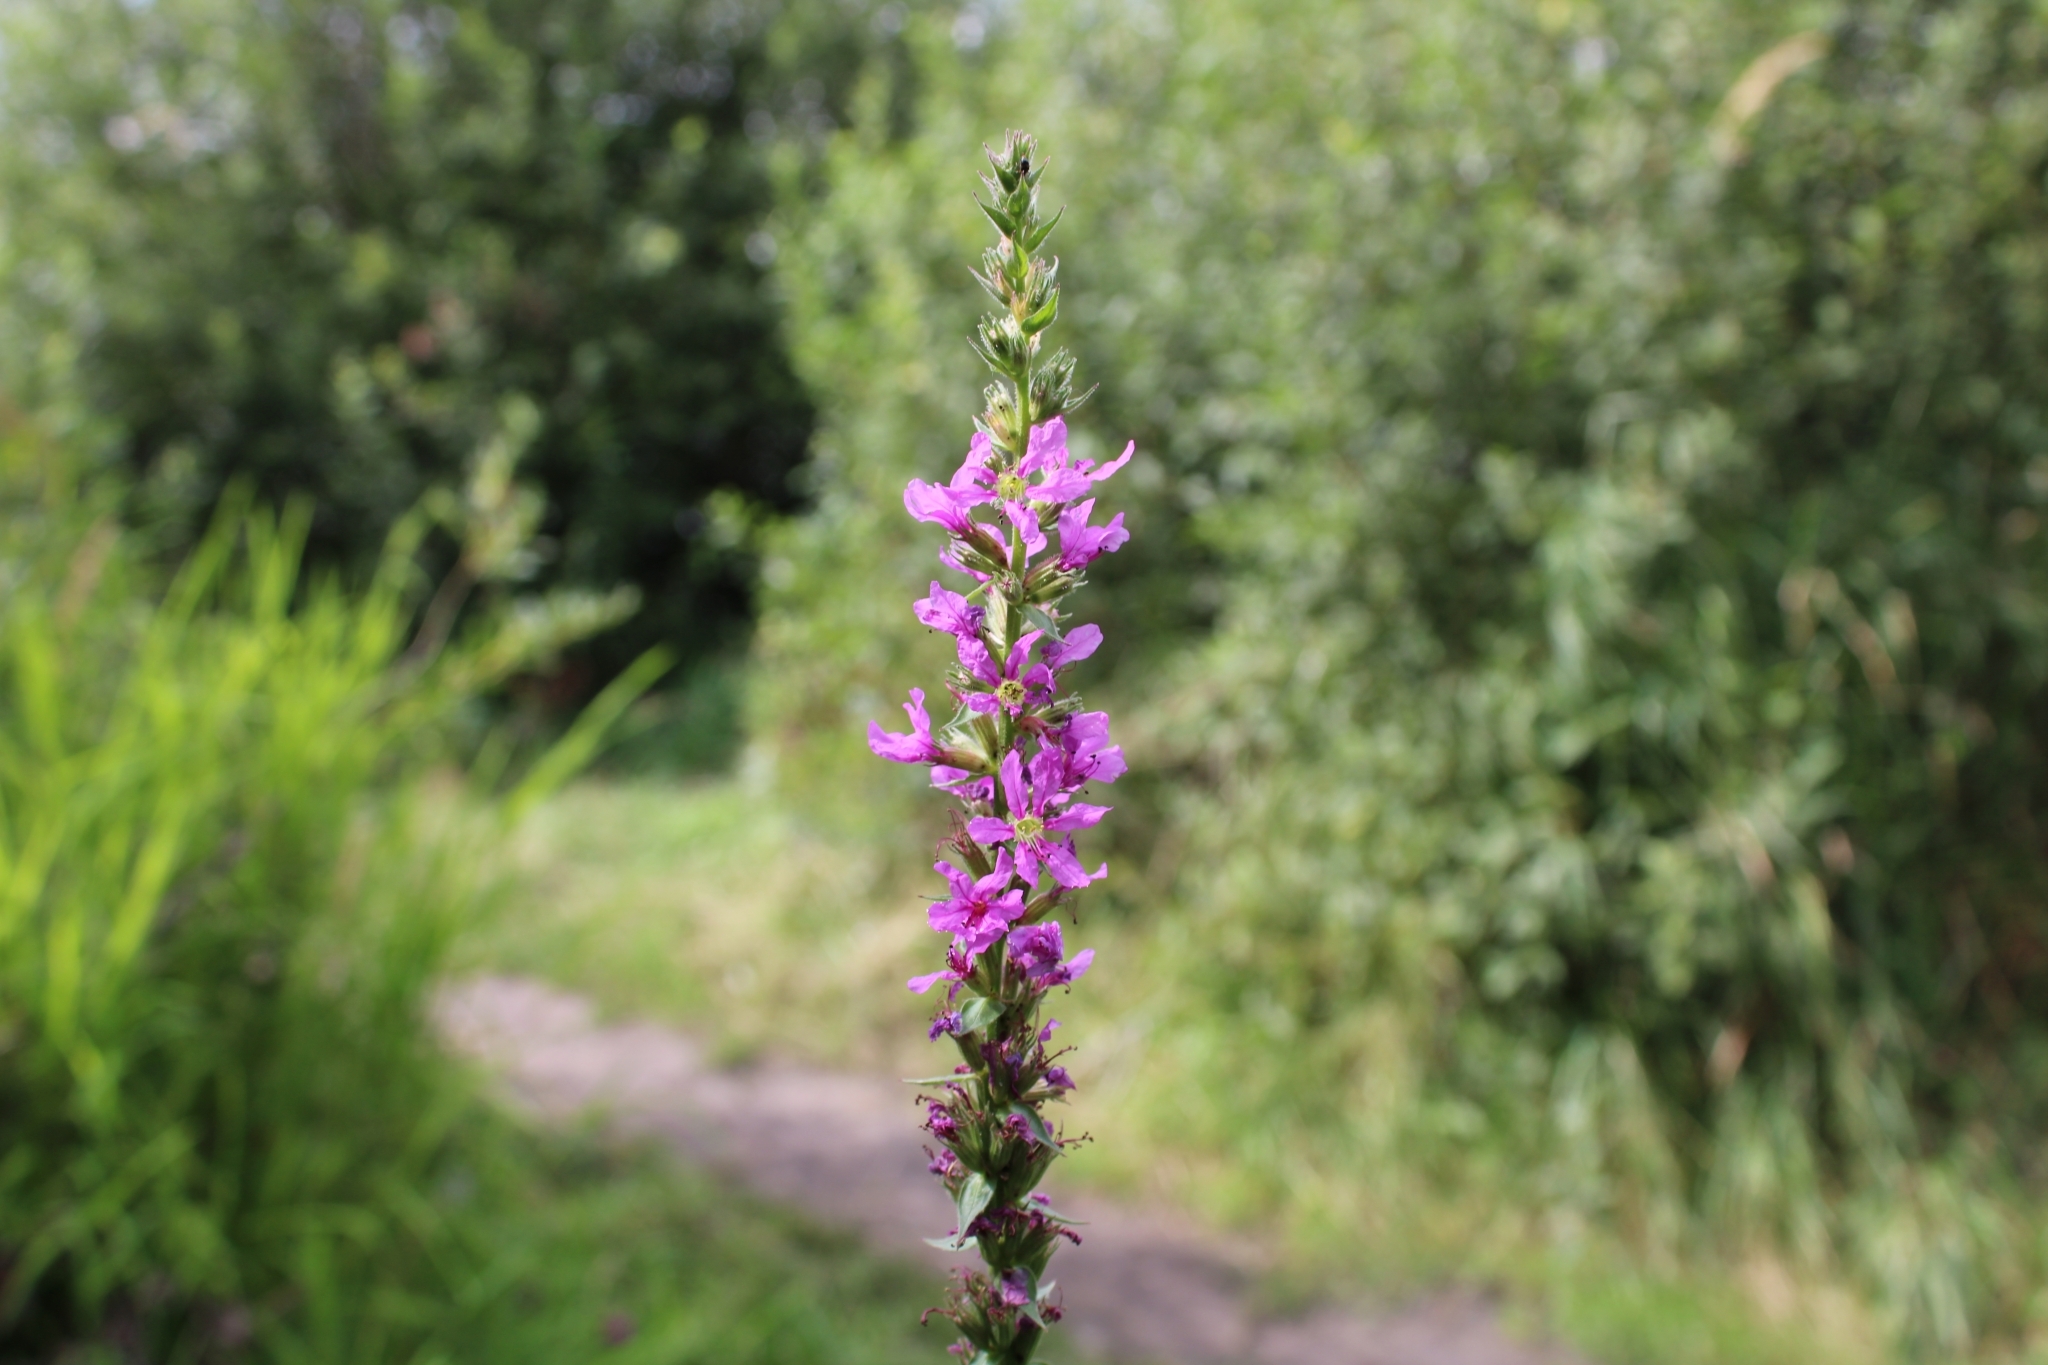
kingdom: Plantae
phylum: Tracheophyta
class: Magnoliopsida
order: Myrtales
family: Lythraceae
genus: Lythrum
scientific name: Lythrum salicaria
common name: Purple loosestrife
